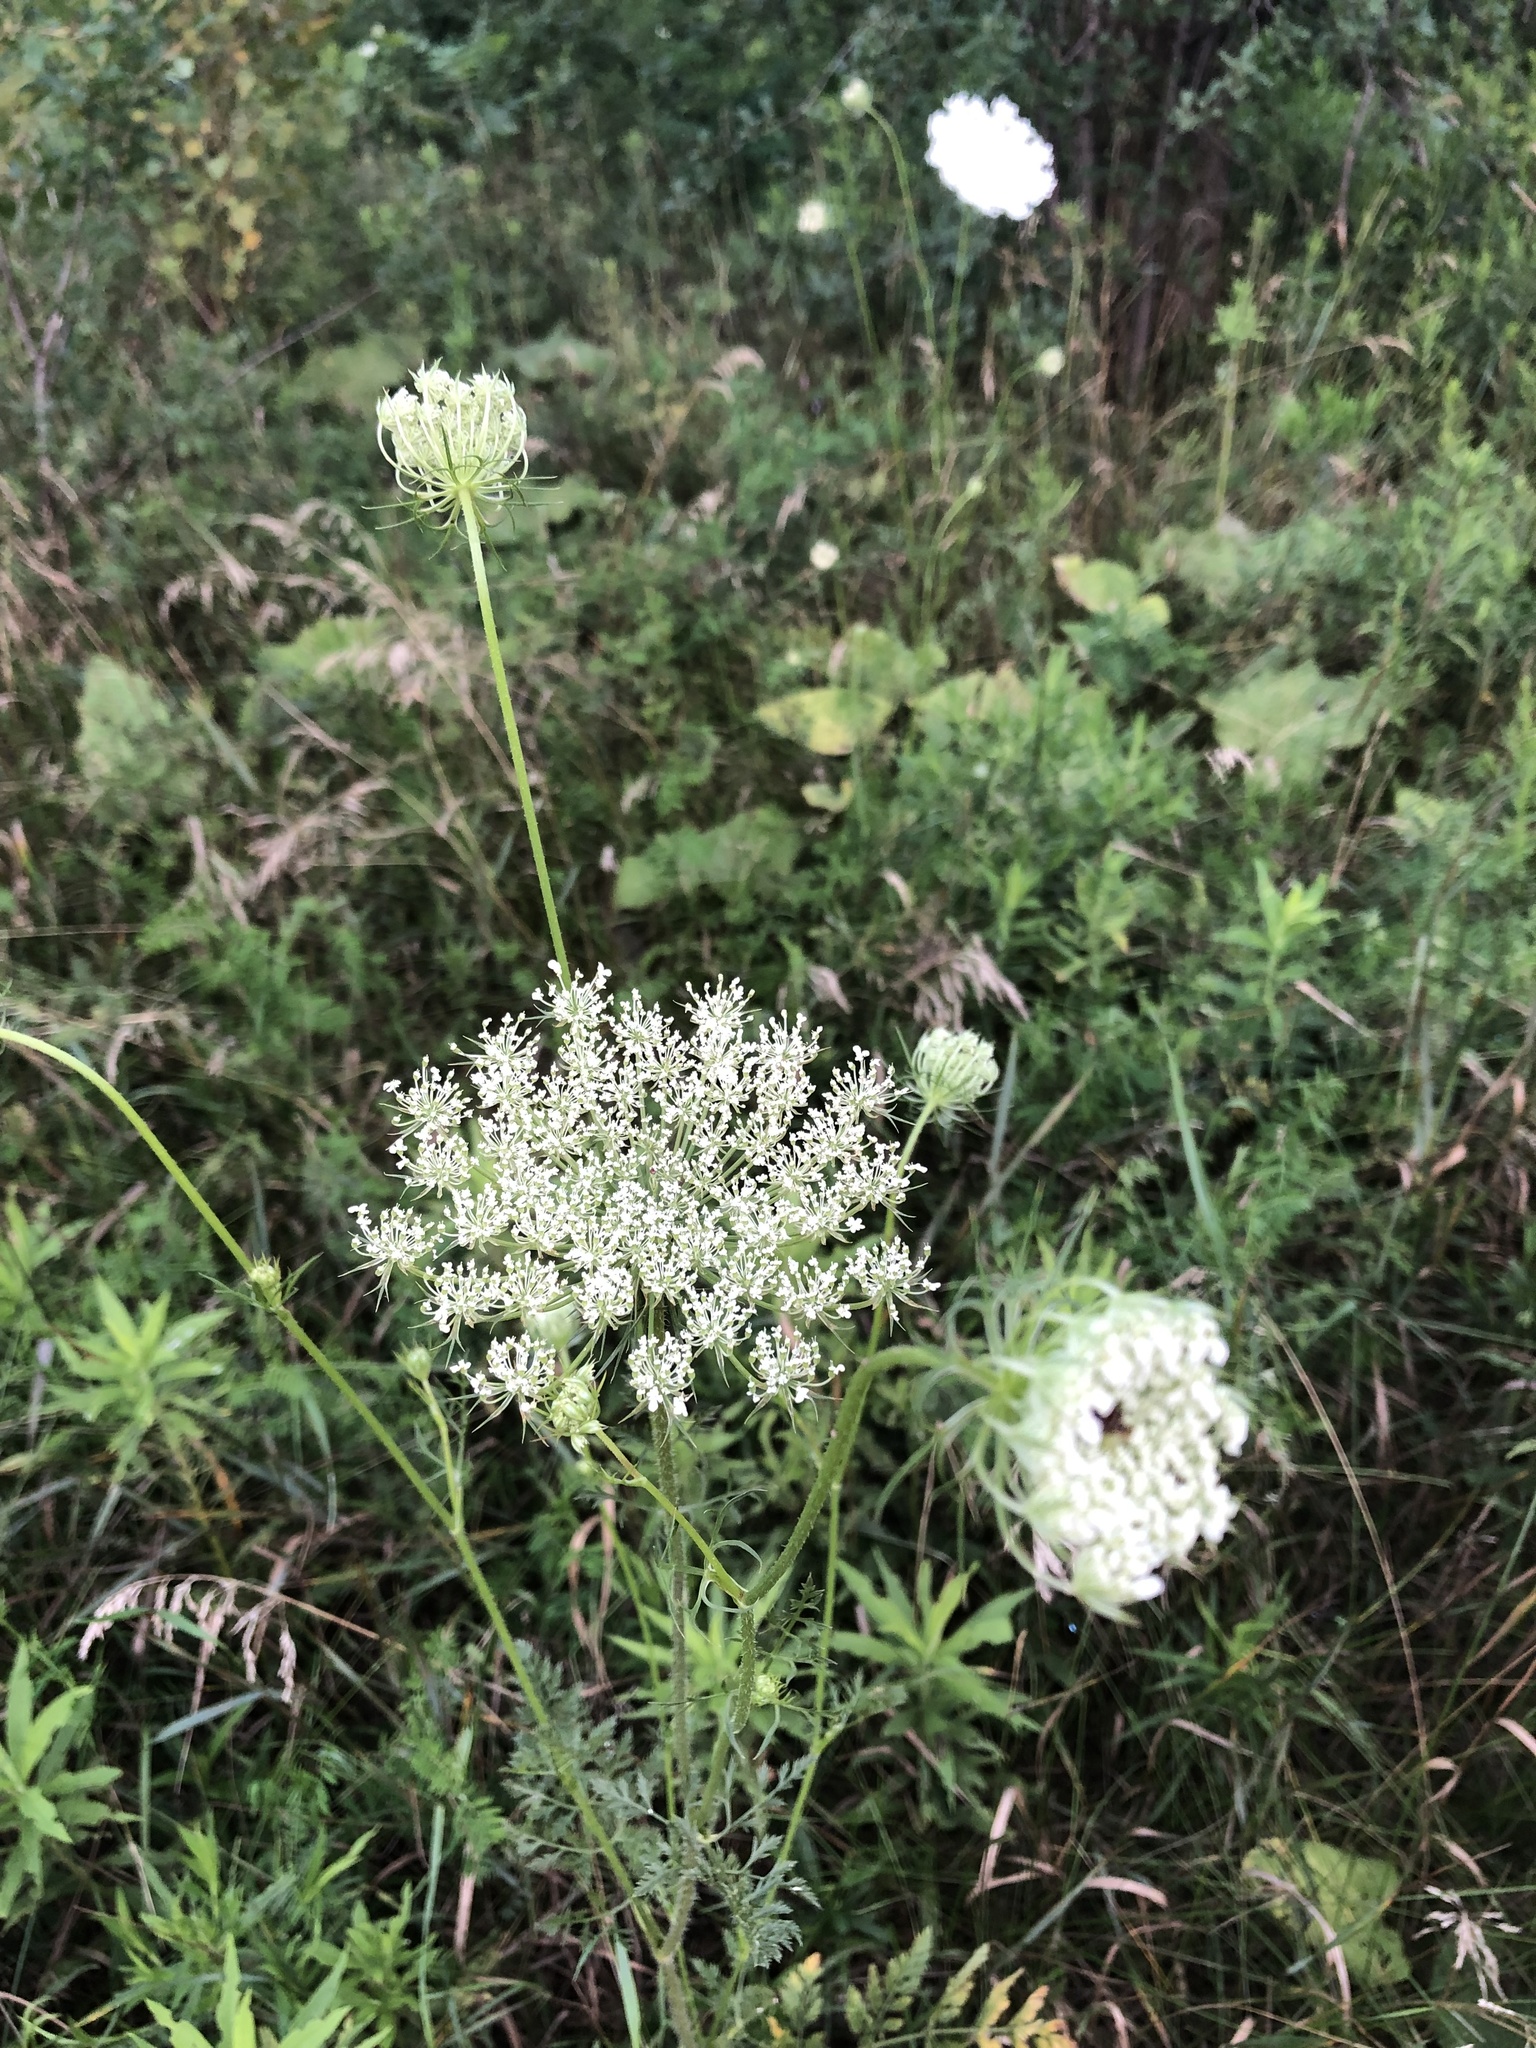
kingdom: Plantae
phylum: Tracheophyta
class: Magnoliopsida
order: Apiales
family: Apiaceae
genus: Daucus
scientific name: Daucus carota
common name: Wild carrot
